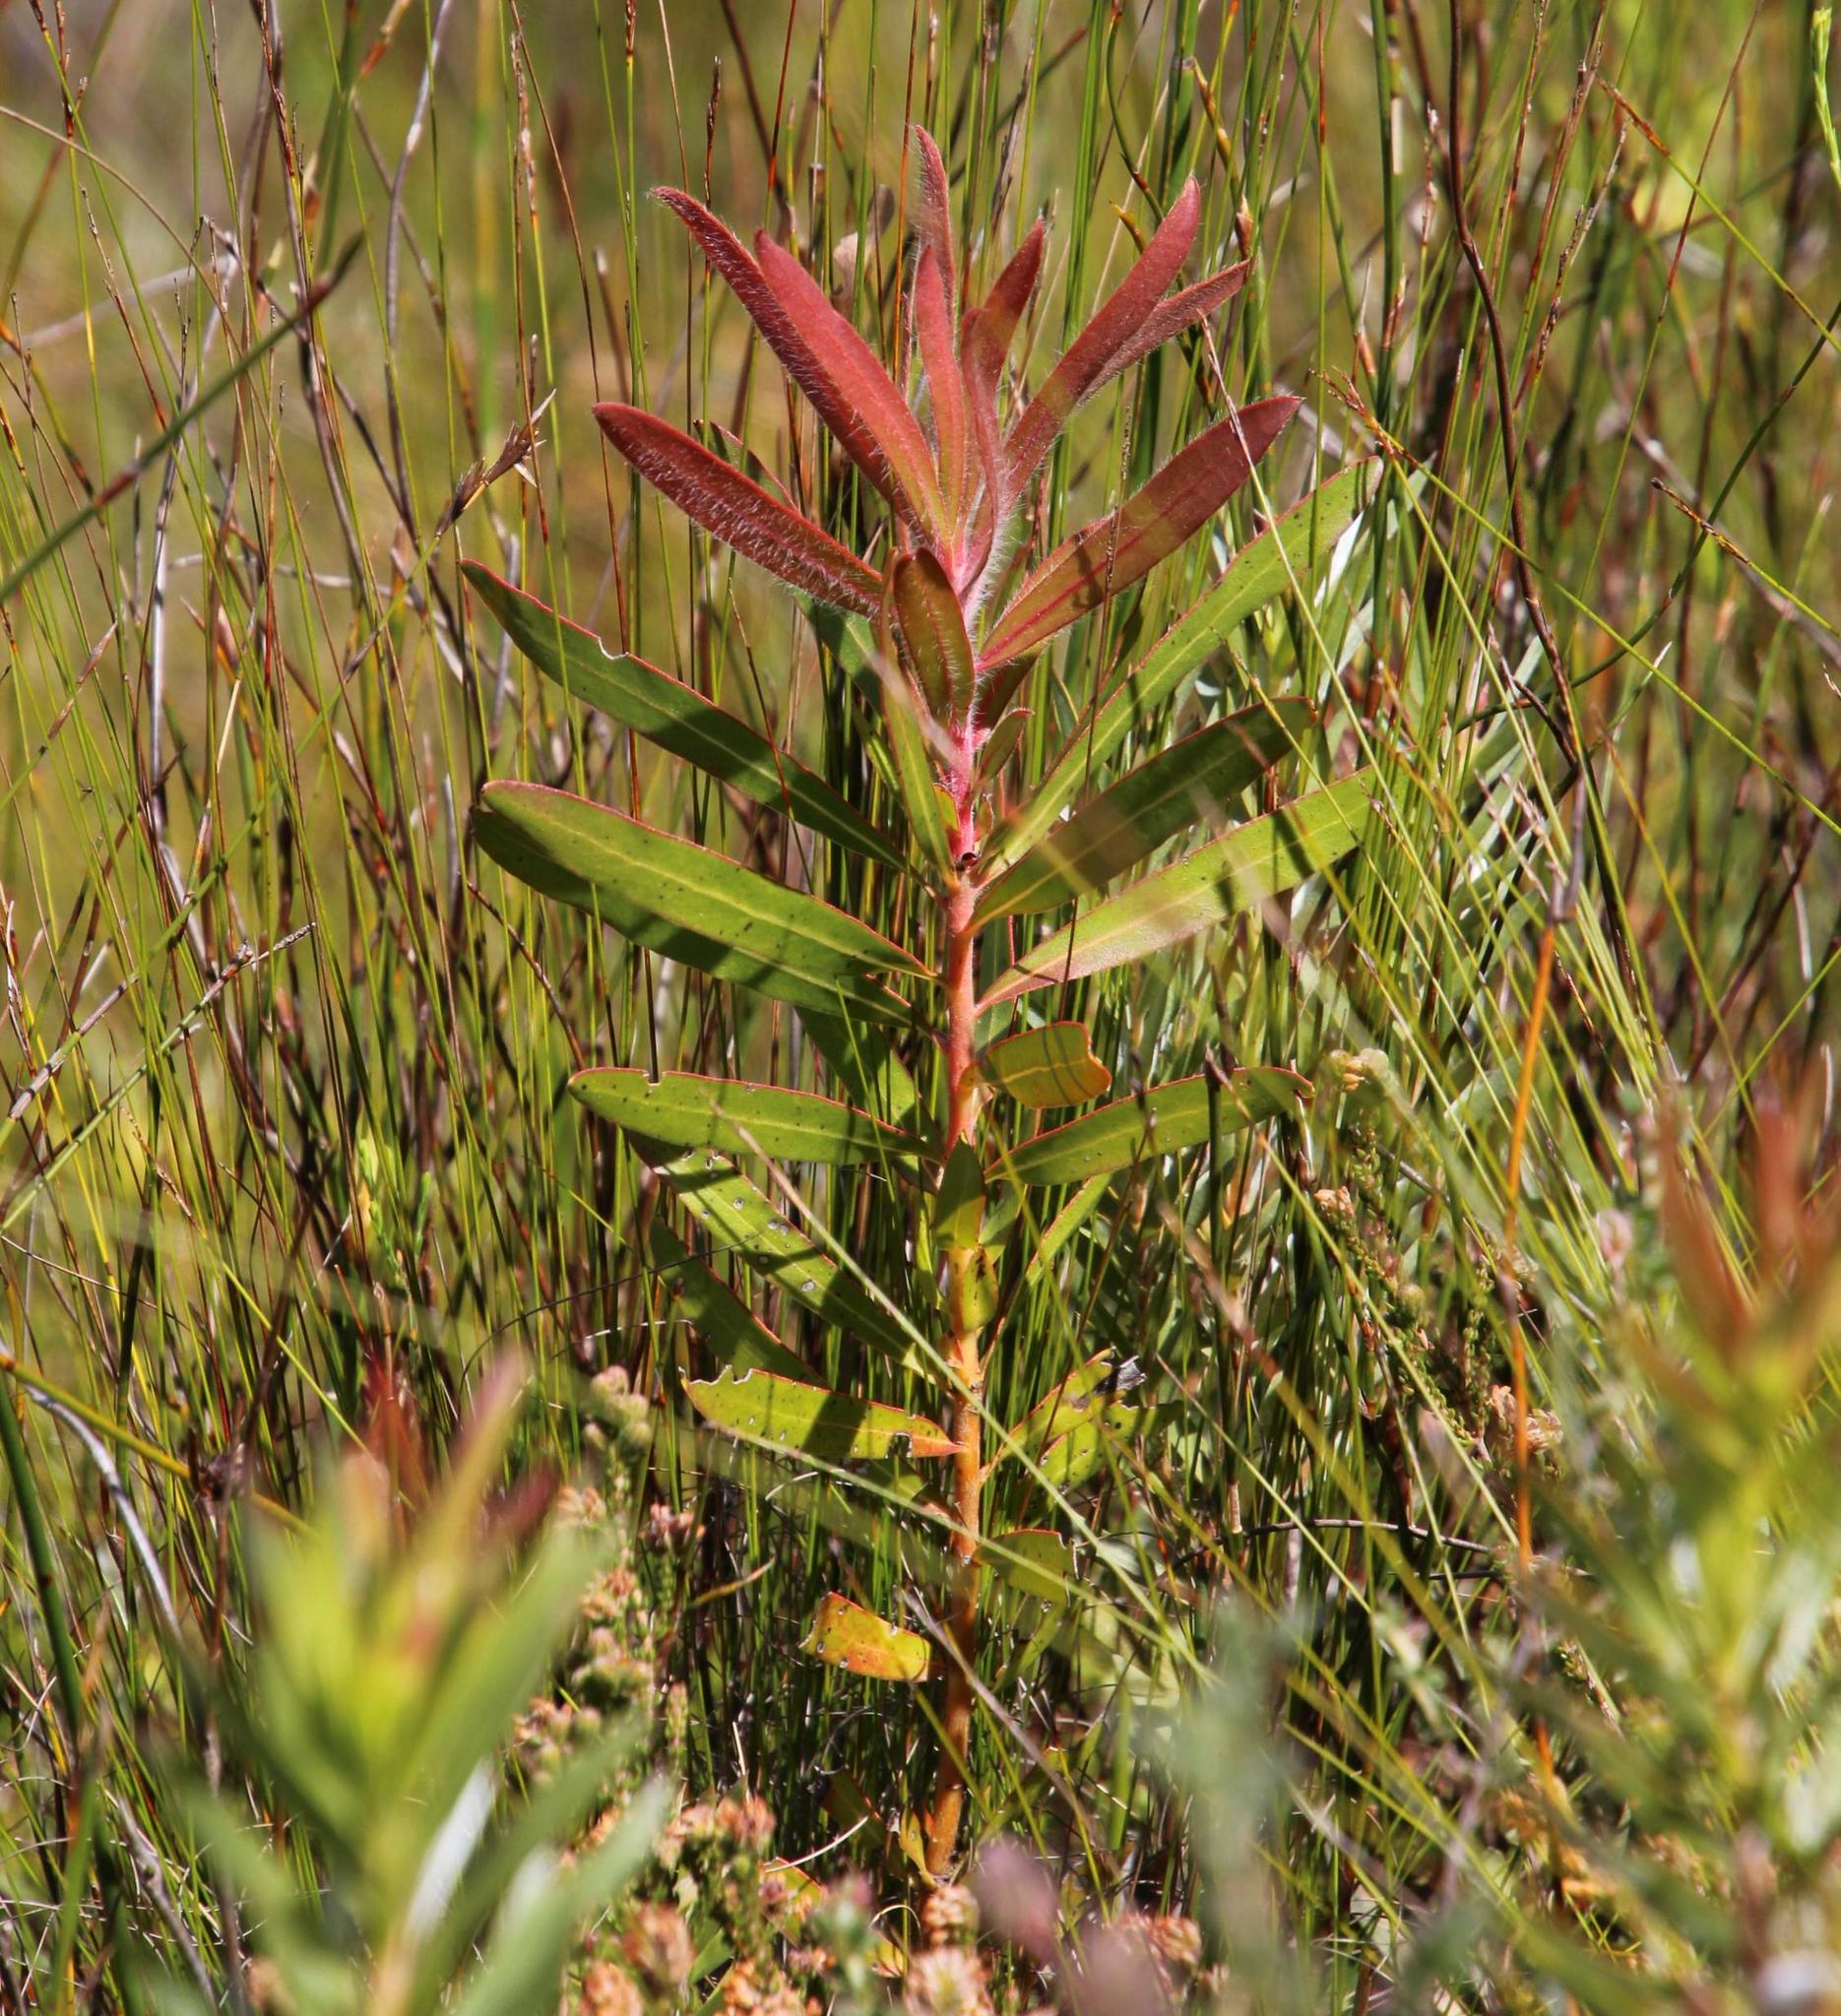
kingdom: Plantae
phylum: Tracheophyta
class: Magnoliopsida
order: Proteales
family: Proteaceae
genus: Protea
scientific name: Protea lepidocarpodendron
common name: Black-bearded protea
